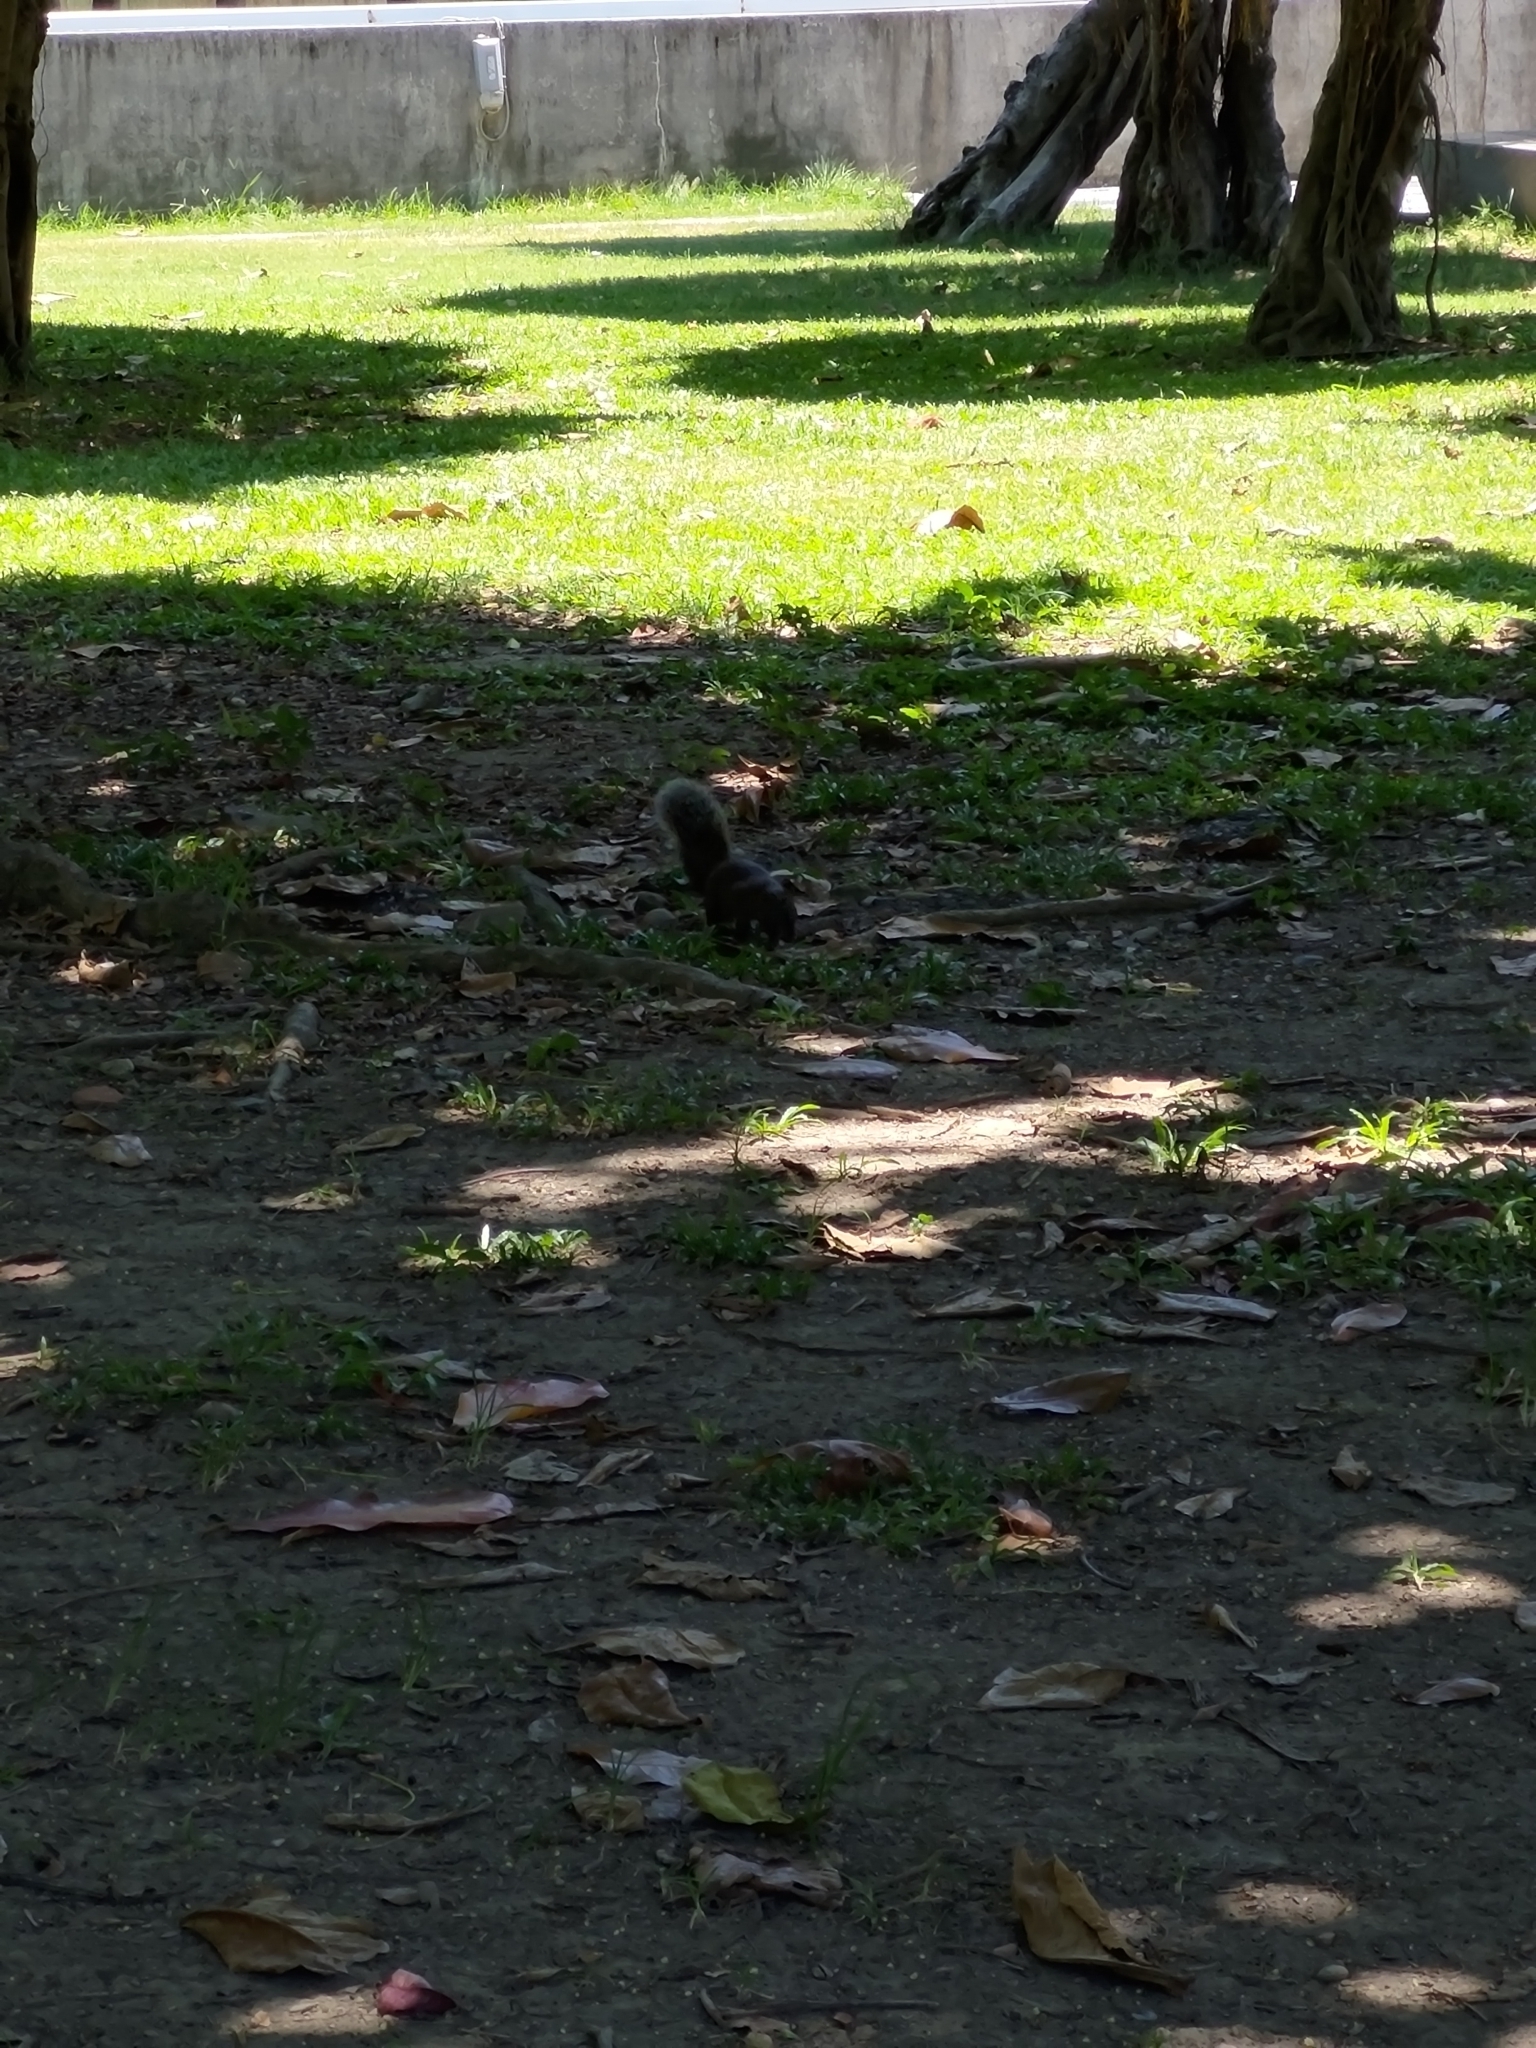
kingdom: Animalia
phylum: Chordata
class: Mammalia
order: Rodentia
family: Sciuridae
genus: Callosciurus
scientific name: Callosciurus erythraeus
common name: Pallas's squirrel
